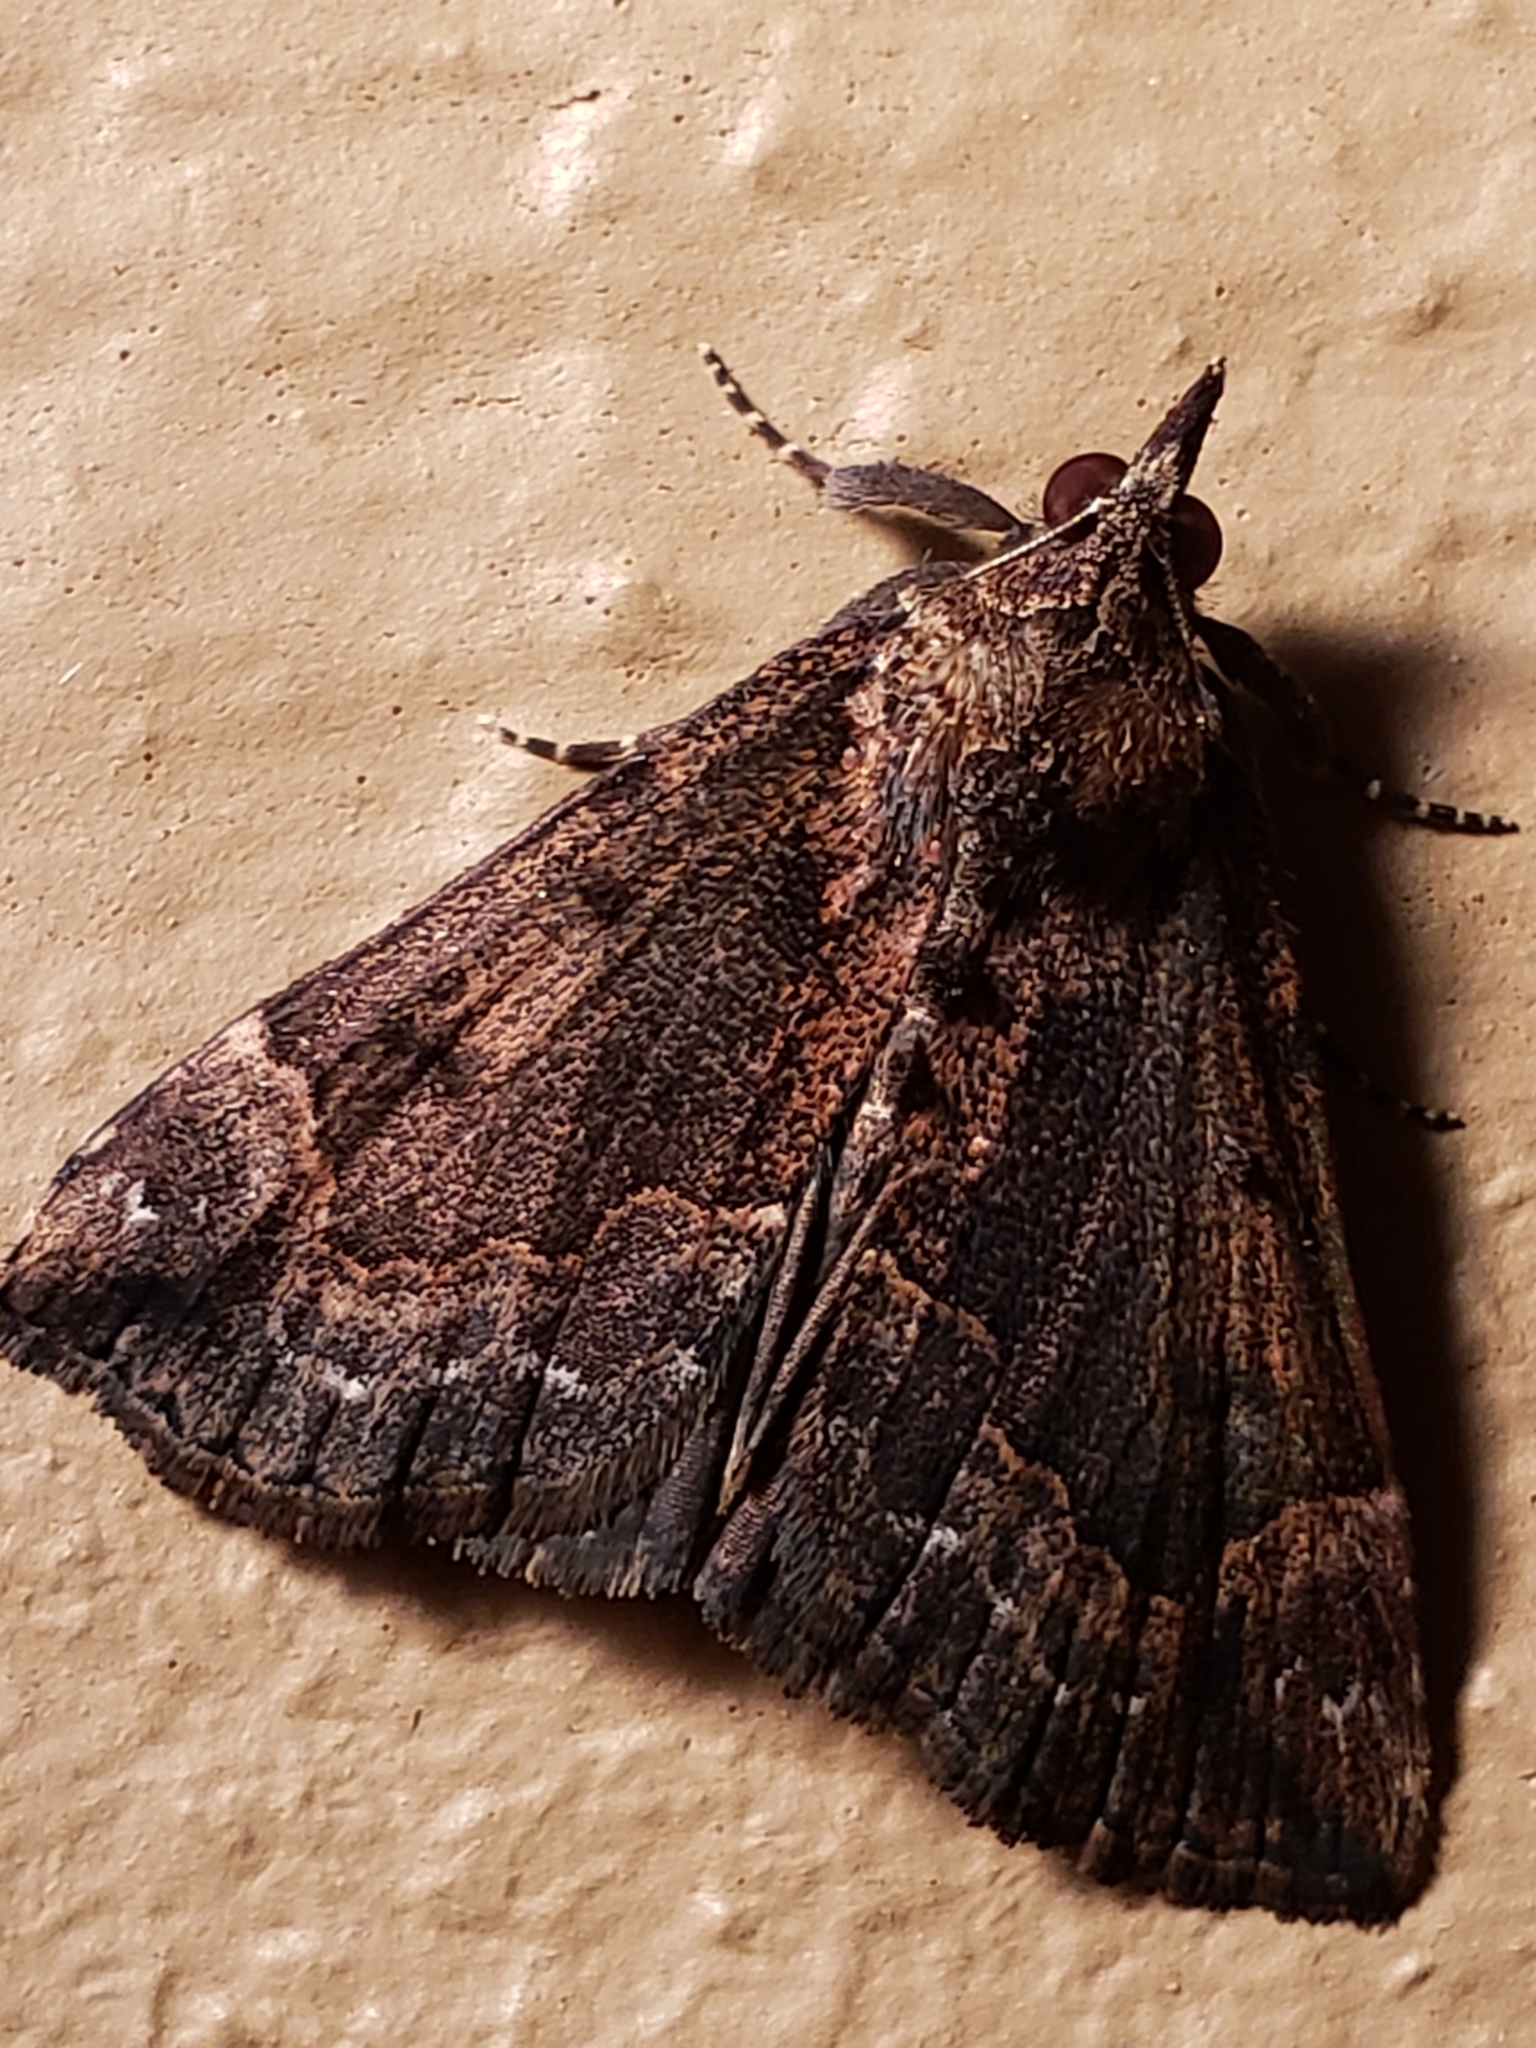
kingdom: Animalia
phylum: Arthropoda
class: Insecta
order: Lepidoptera
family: Erebidae
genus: Hypena
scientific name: Hypena palparia
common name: Mottled bomolocha moth
